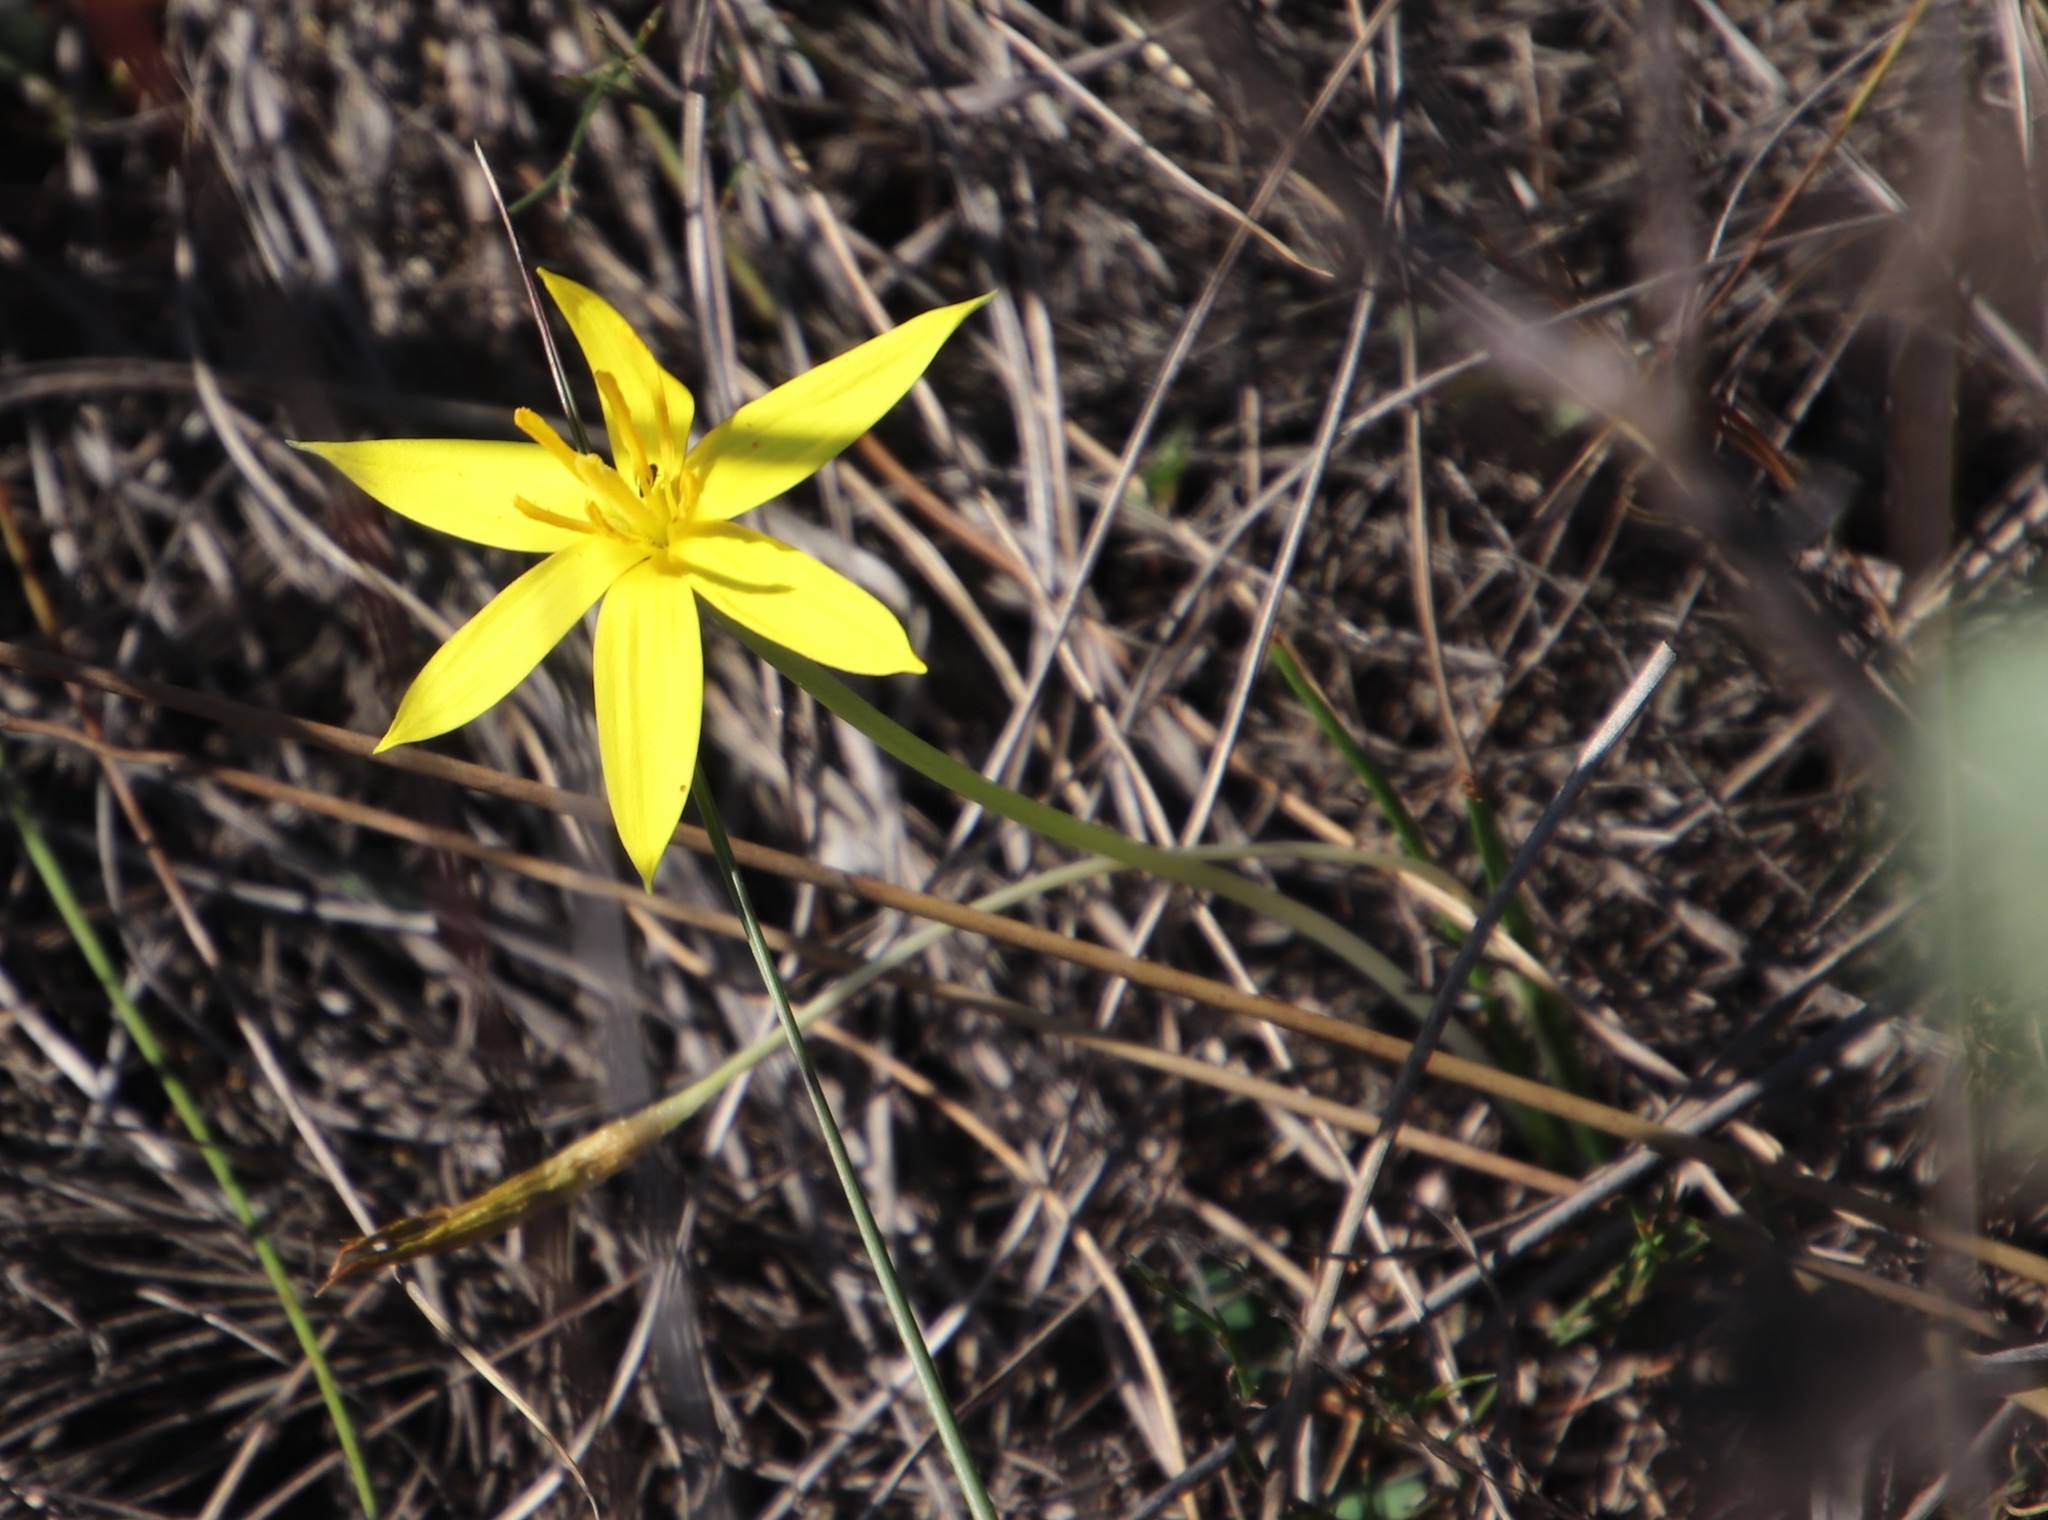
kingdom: Plantae
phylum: Tracheophyta
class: Liliopsida
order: Asparagales
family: Hypoxidaceae
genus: Pauridia
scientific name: Pauridia affinis
